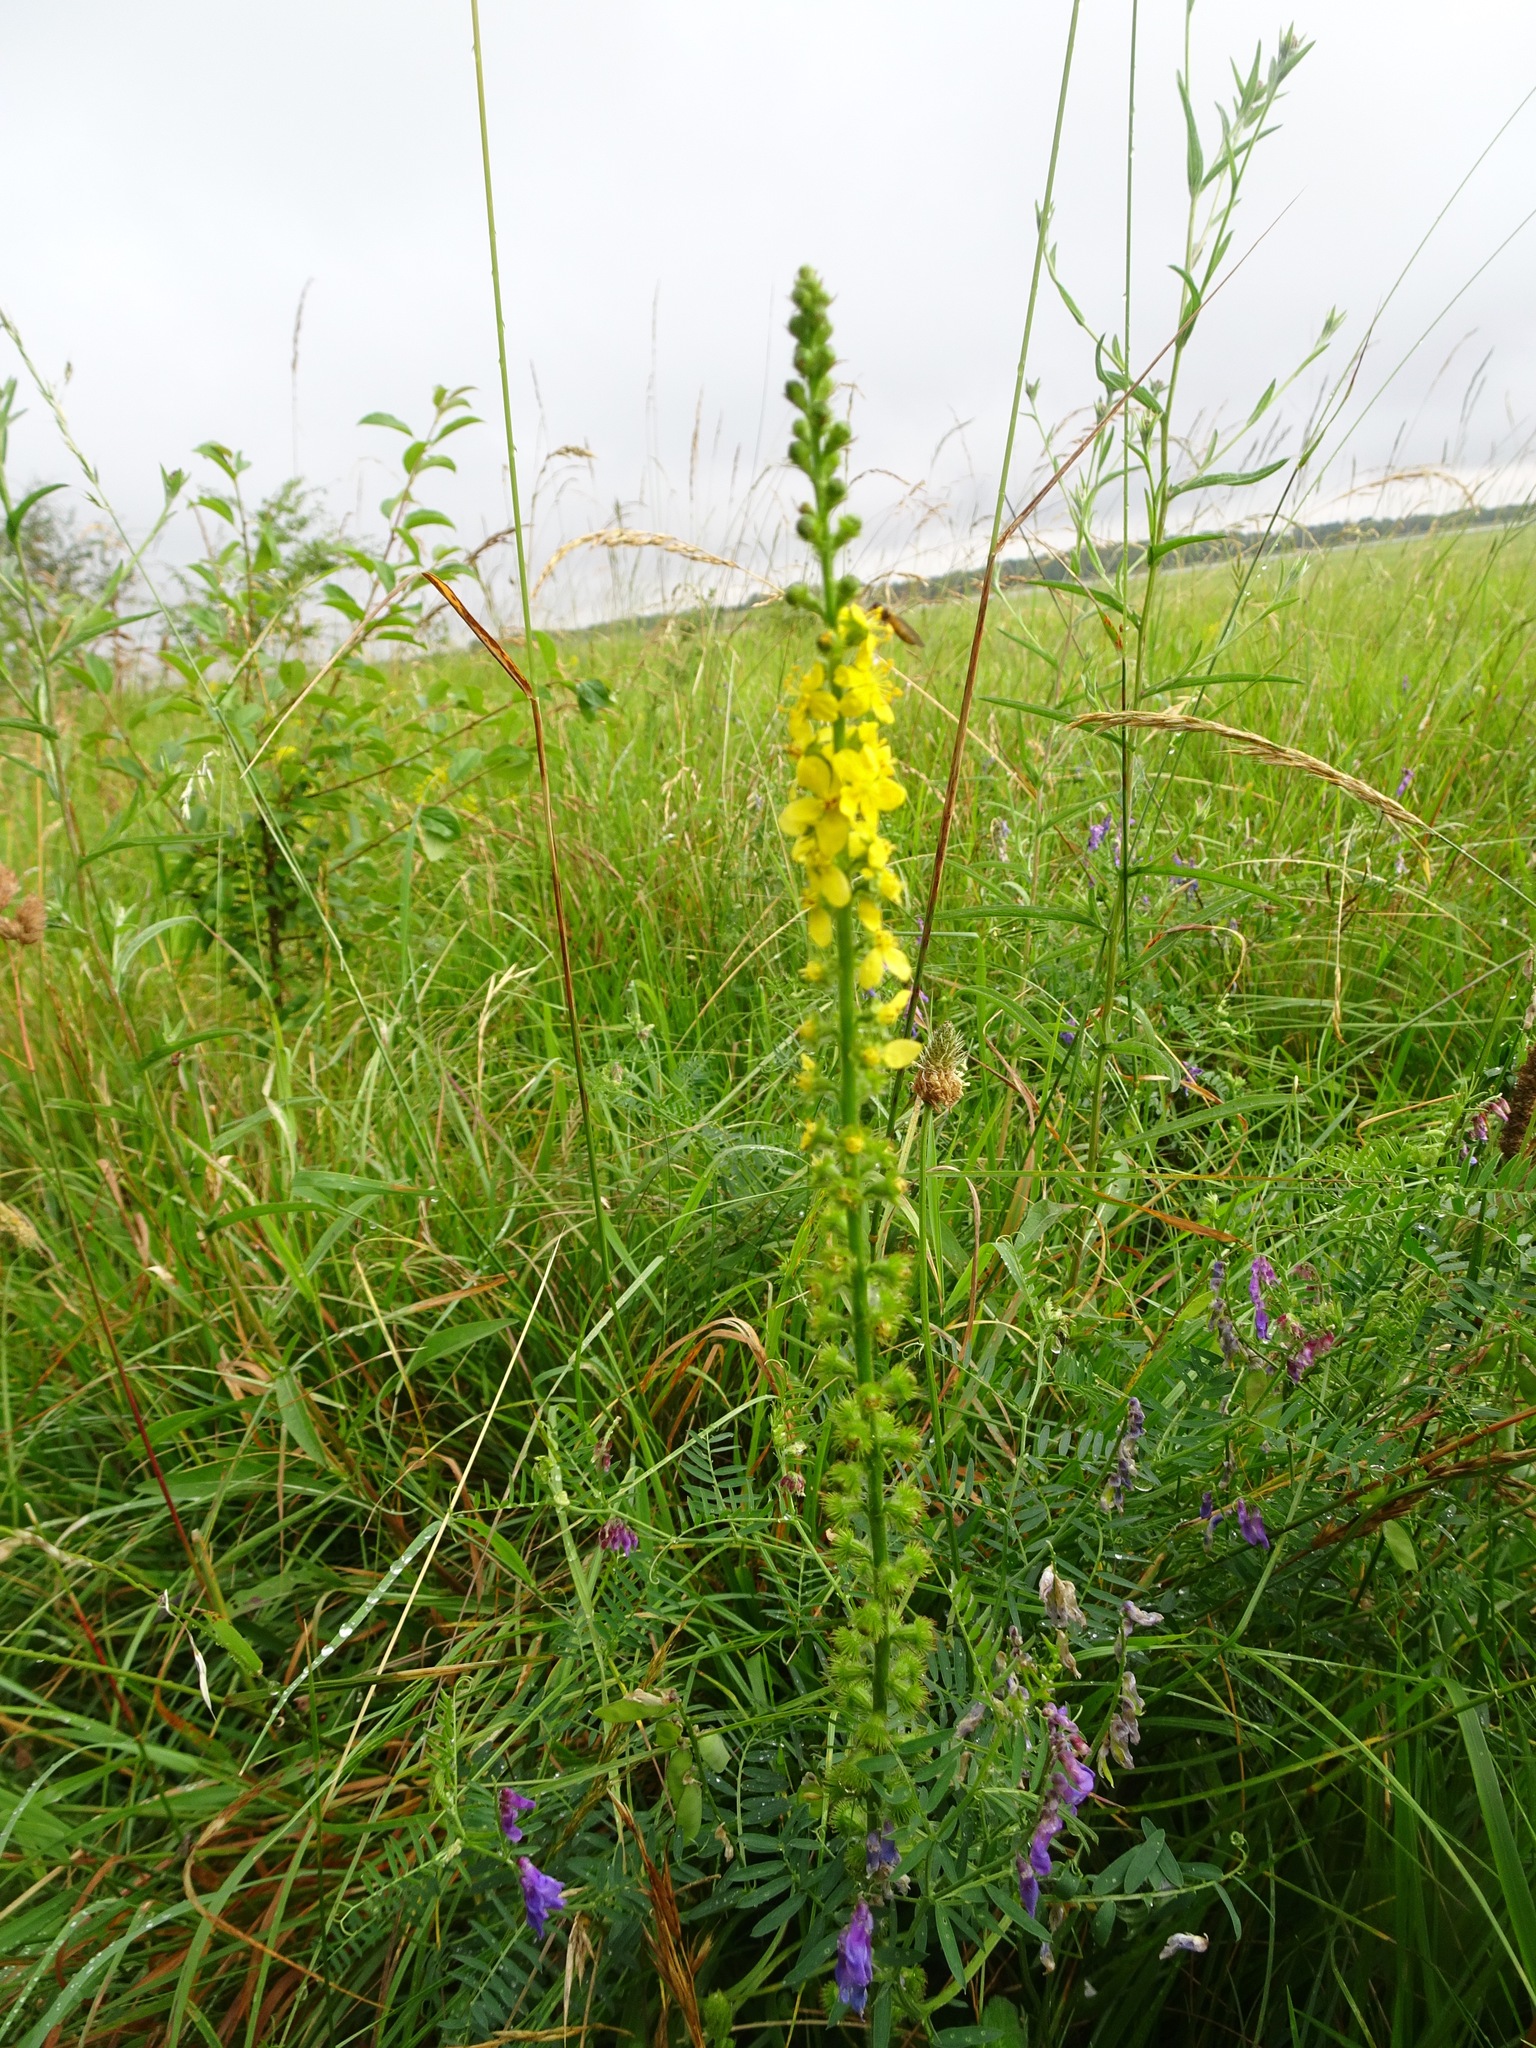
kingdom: Plantae
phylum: Tracheophyta
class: Magnoliopsida
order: Rosales
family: Rosaceae
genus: Agrimonia
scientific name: Agrimonia eupatoria
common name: Agrimony
